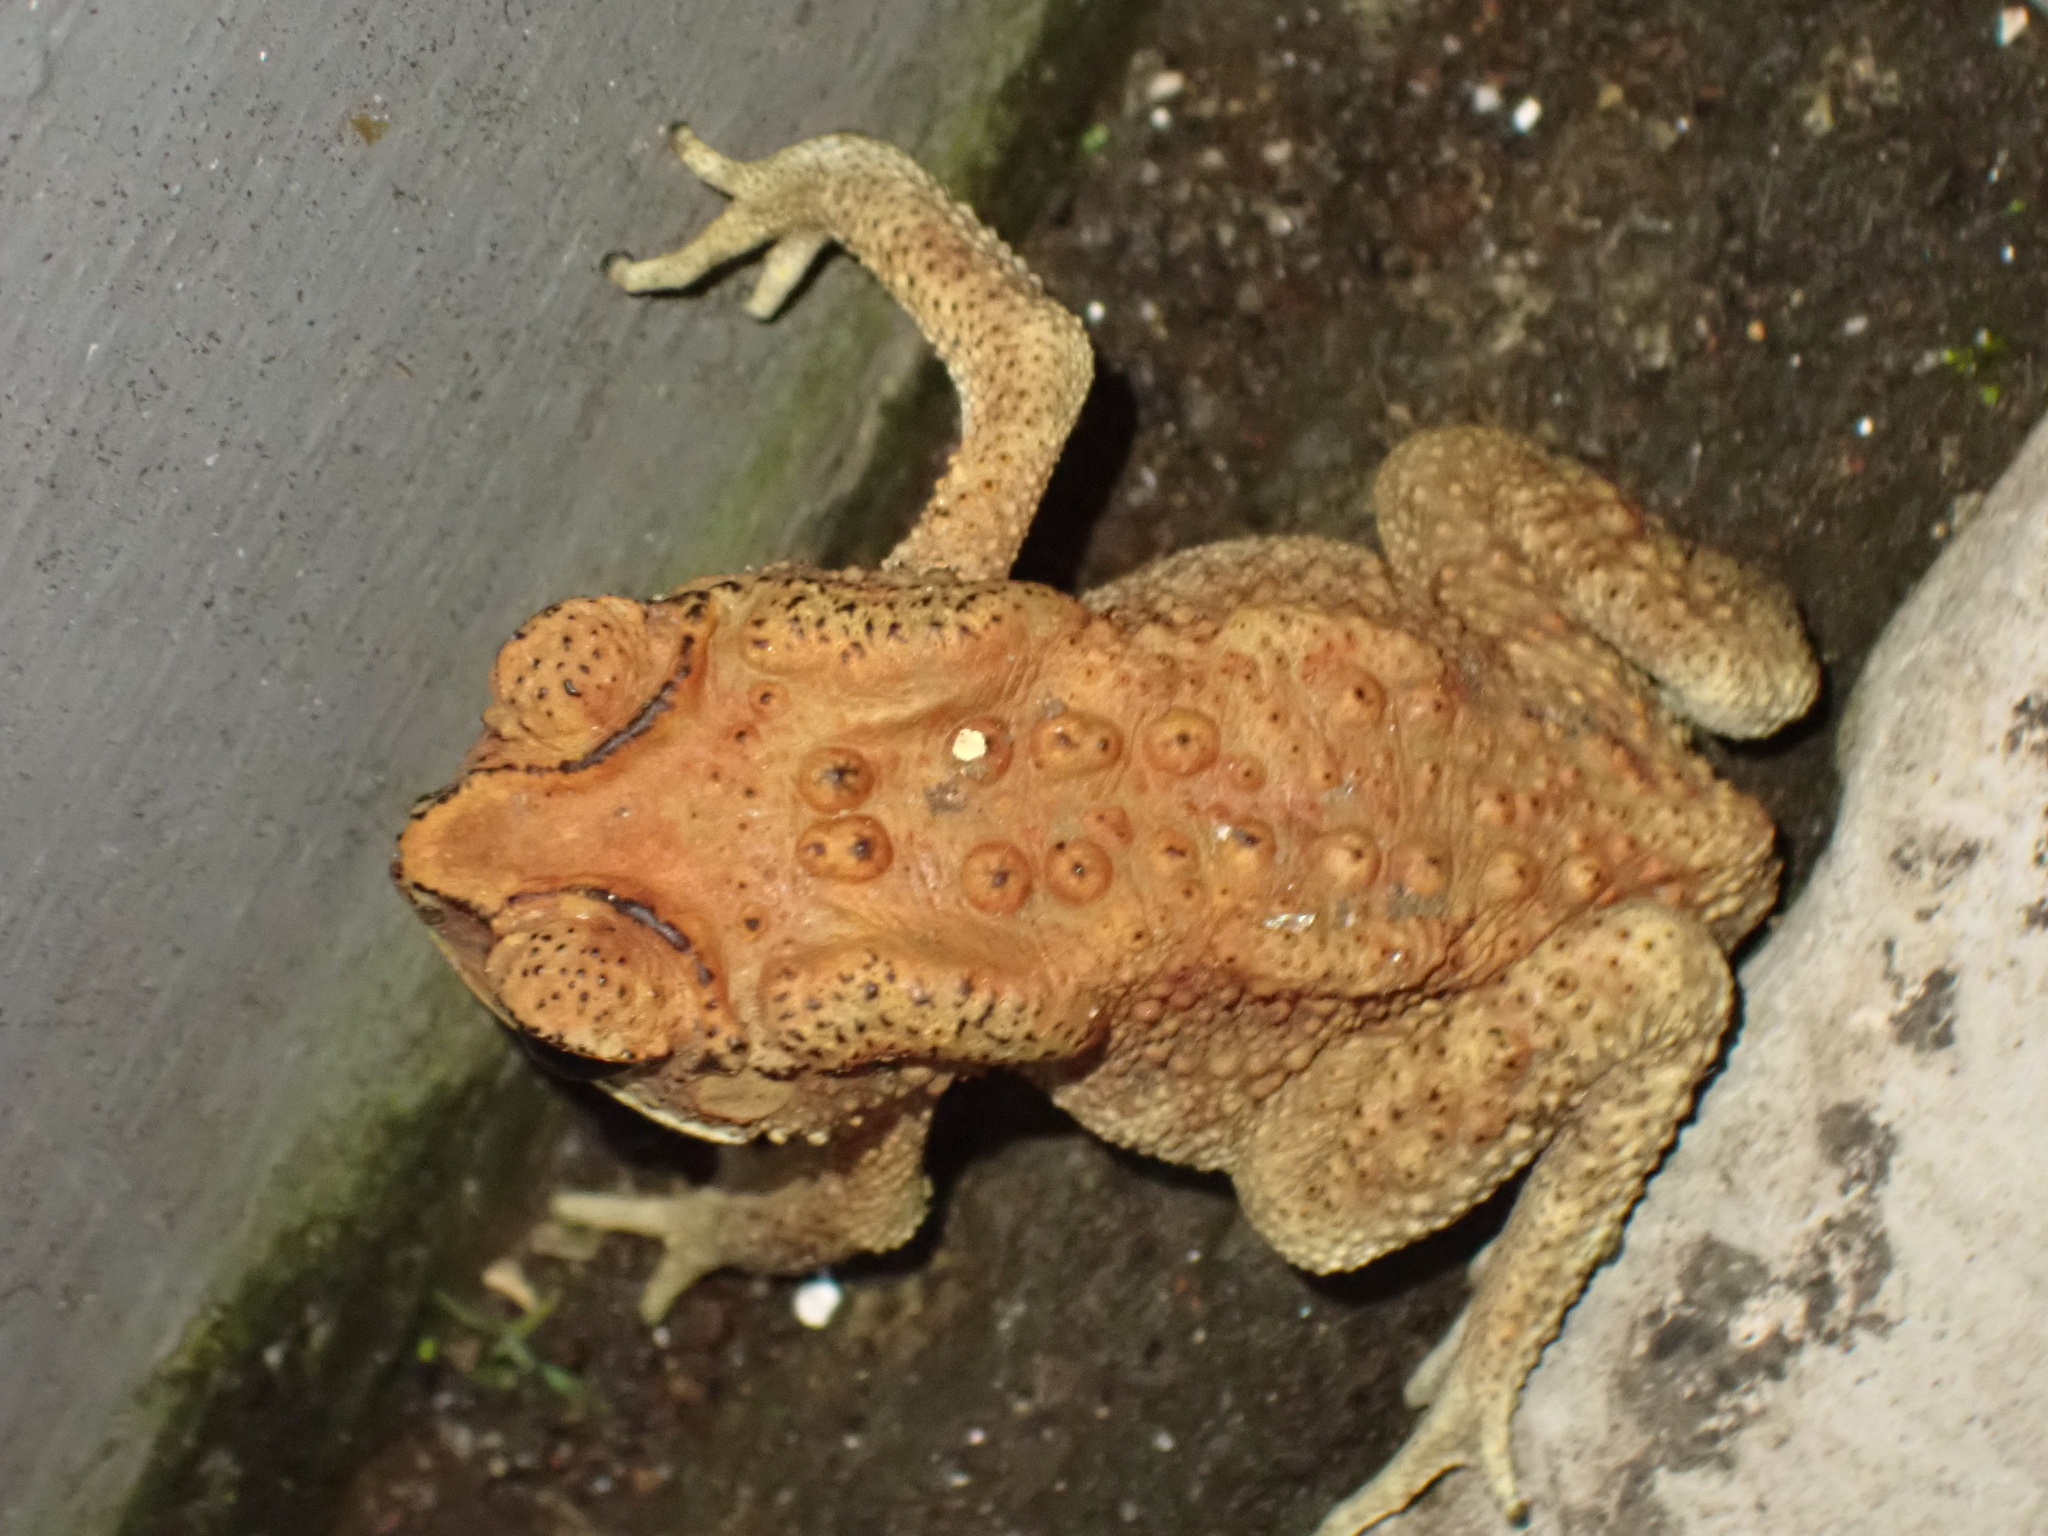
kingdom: Animalia
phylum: Chordata
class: Amphibia
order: Anura
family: Bufonidae
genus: Duttaphrynus
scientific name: Duttaphrynus melanostictus
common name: Common sunda toad
